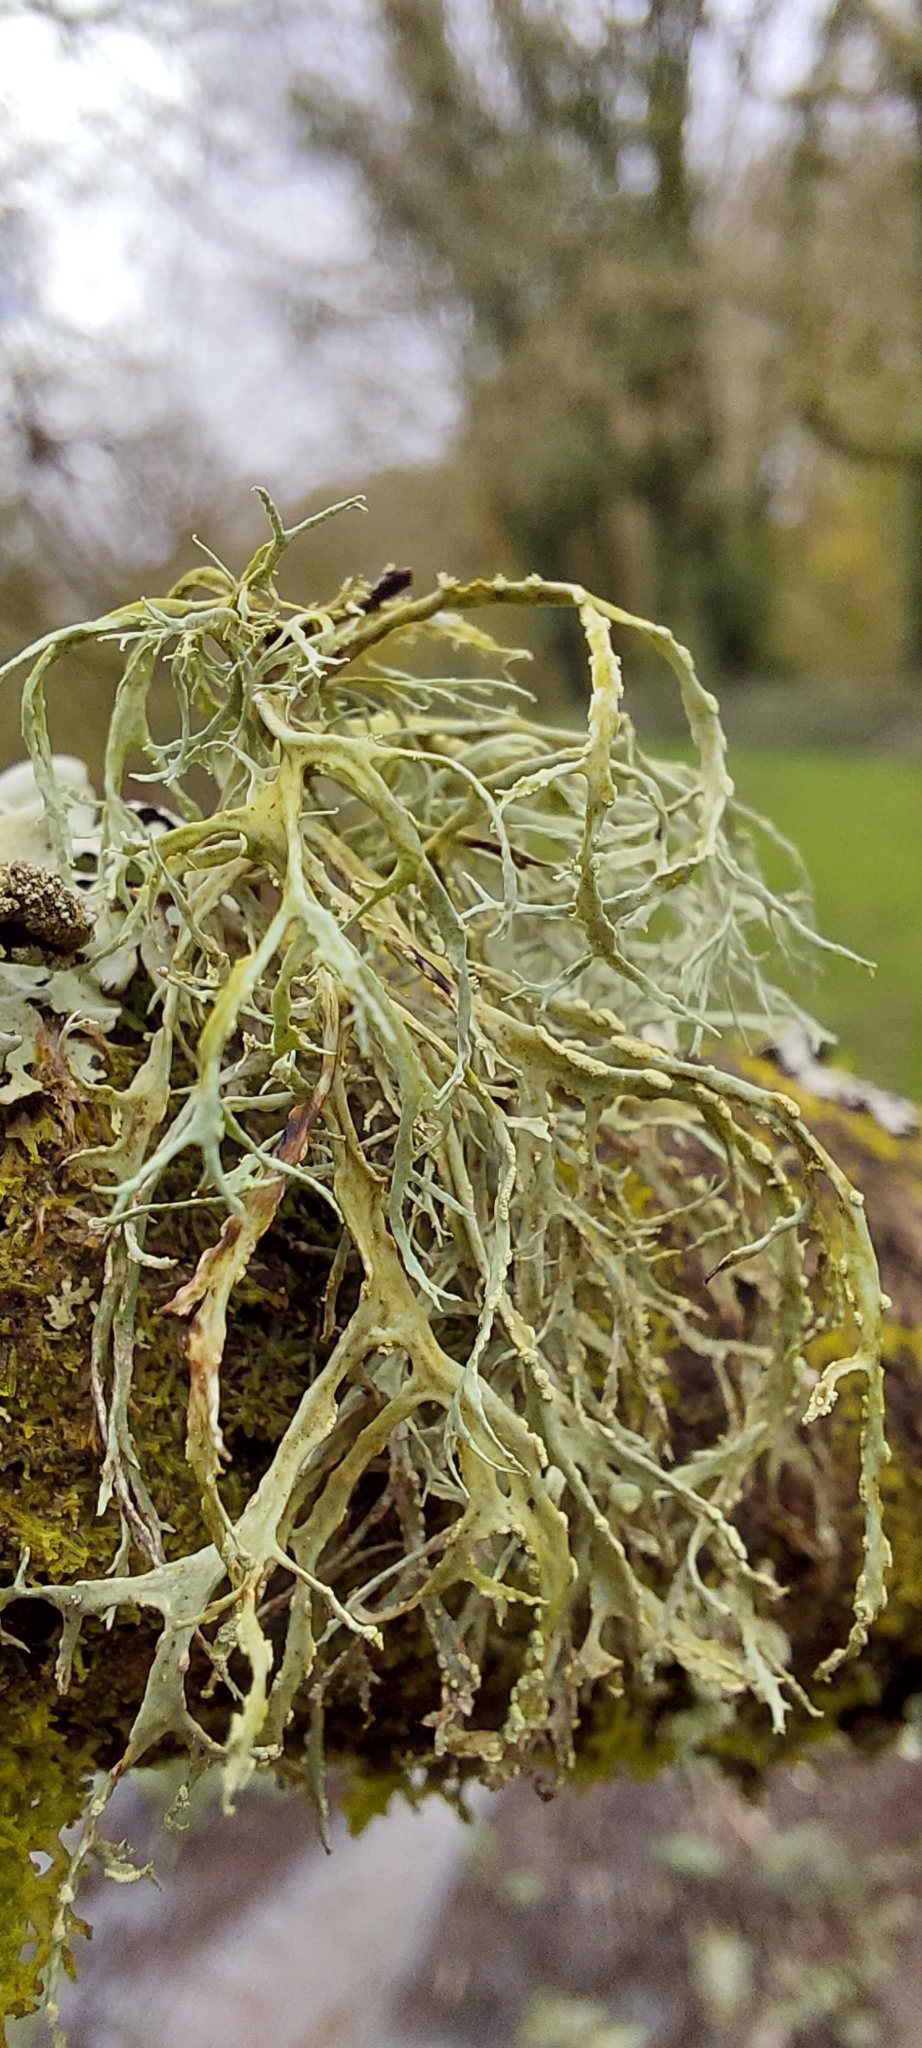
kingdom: Fungi
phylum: Ascomycota
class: Lecanoromycetes
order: Lecanorales
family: Ramalinaceae
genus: Ramalina
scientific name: Ramalina farinacea
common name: Farinose cartilage lichen
